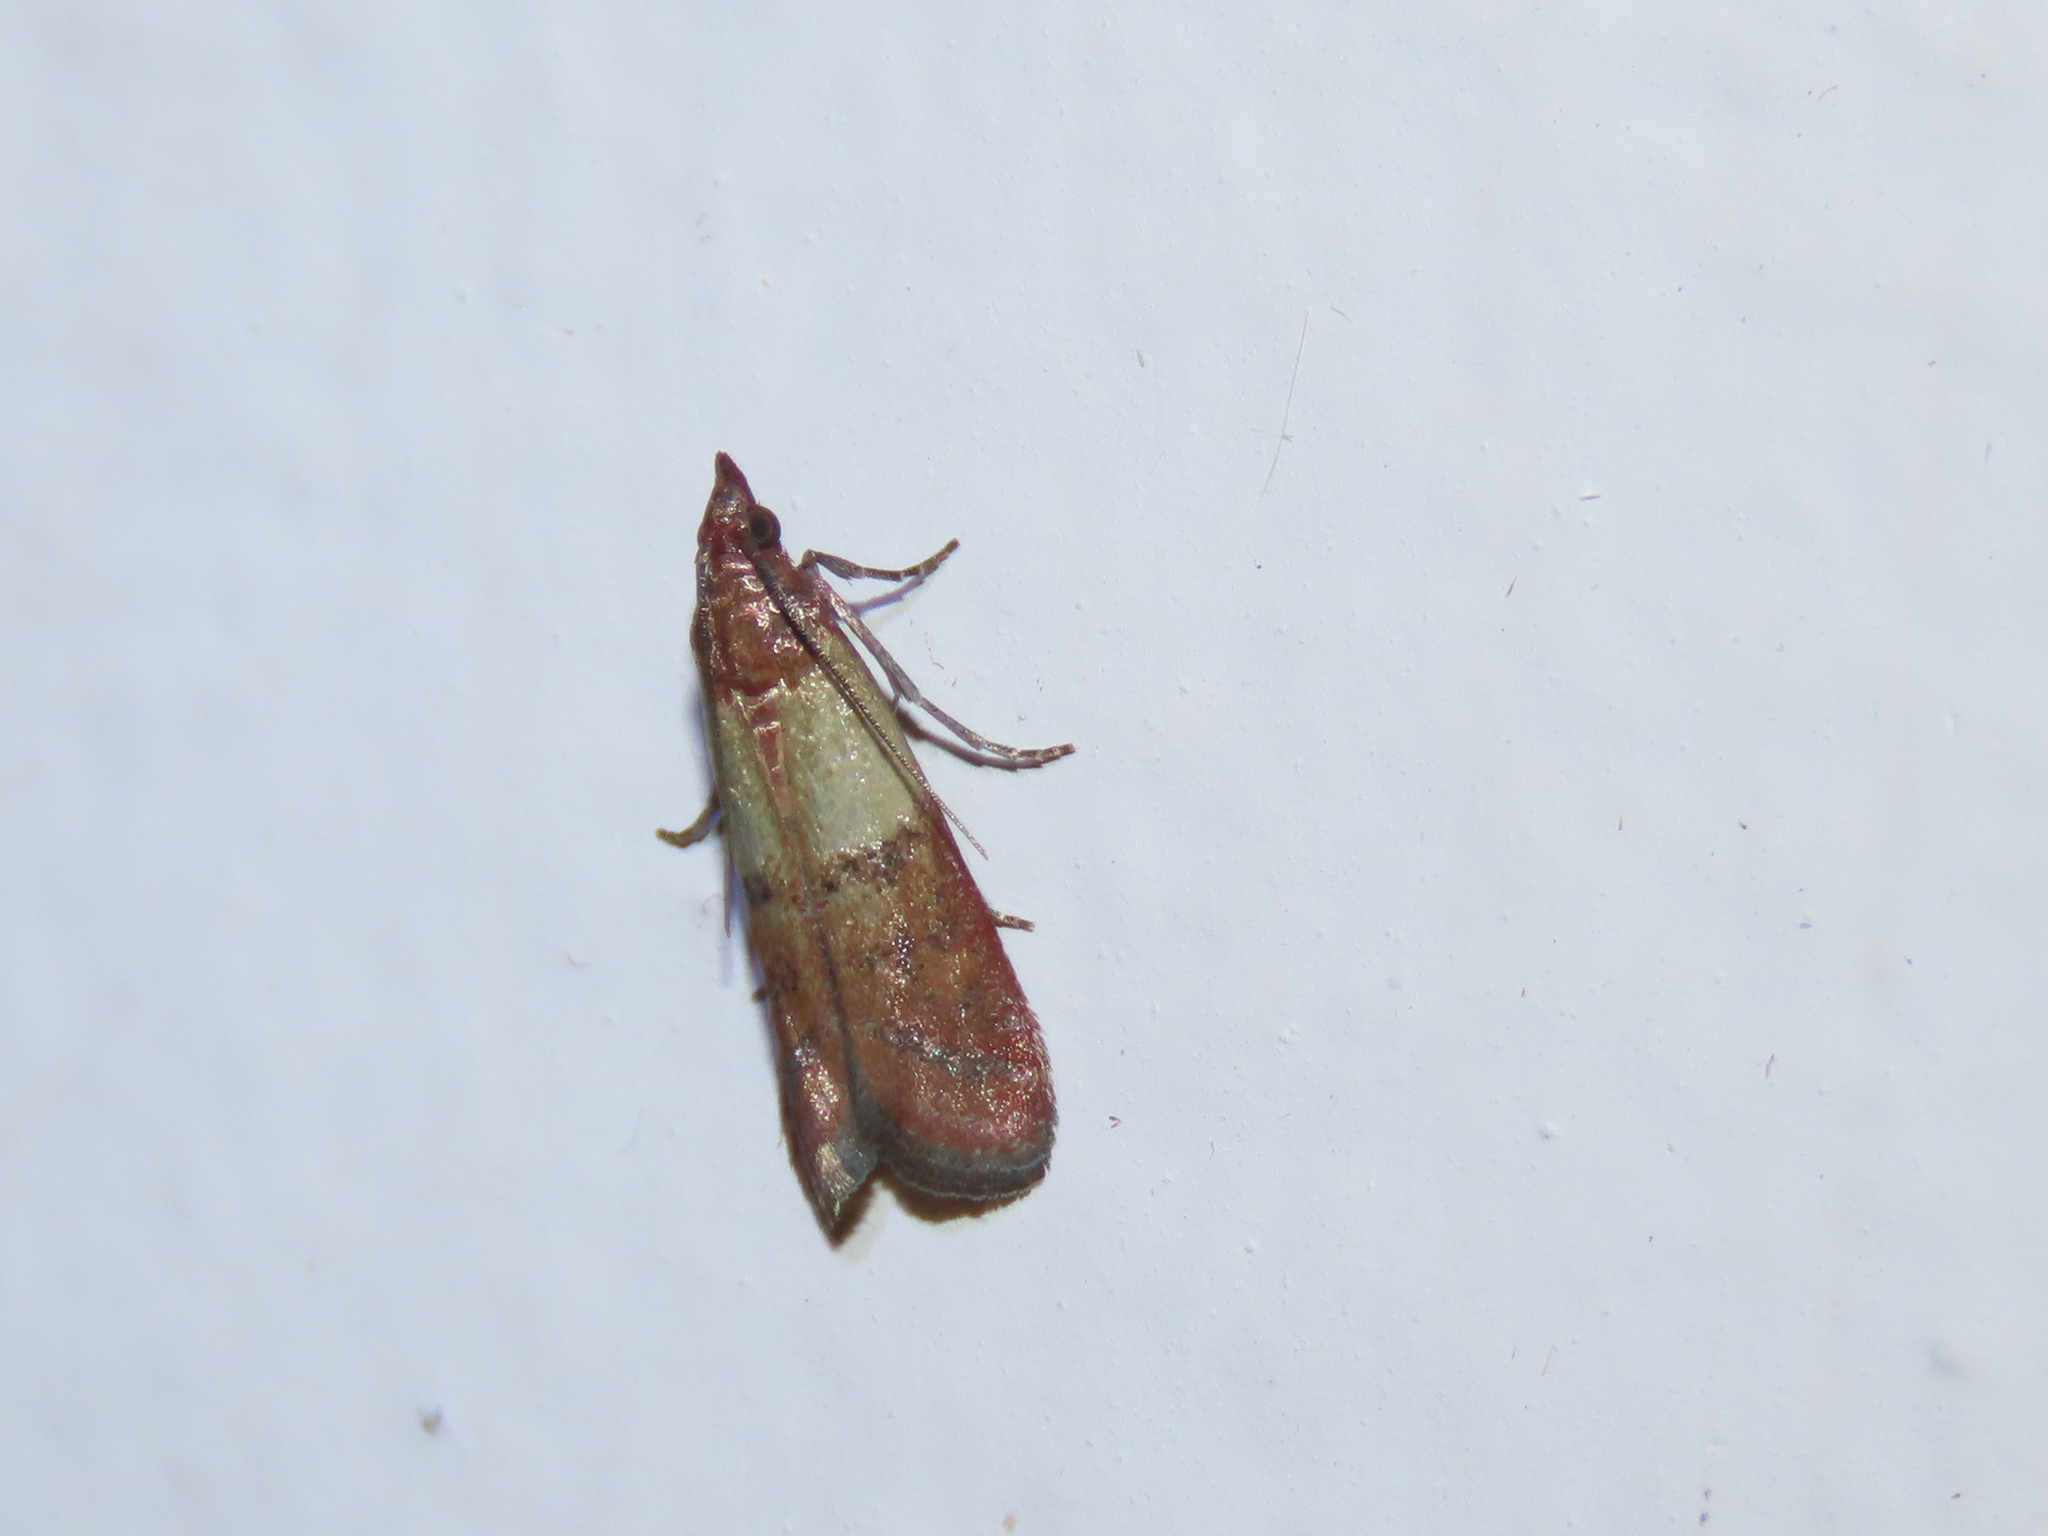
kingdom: Animalia
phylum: Arthropoda
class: Insecta
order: Lepidoptera
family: Pyralidae
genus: Plodia
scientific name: Plodia interpunctella
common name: Indian meal moth
